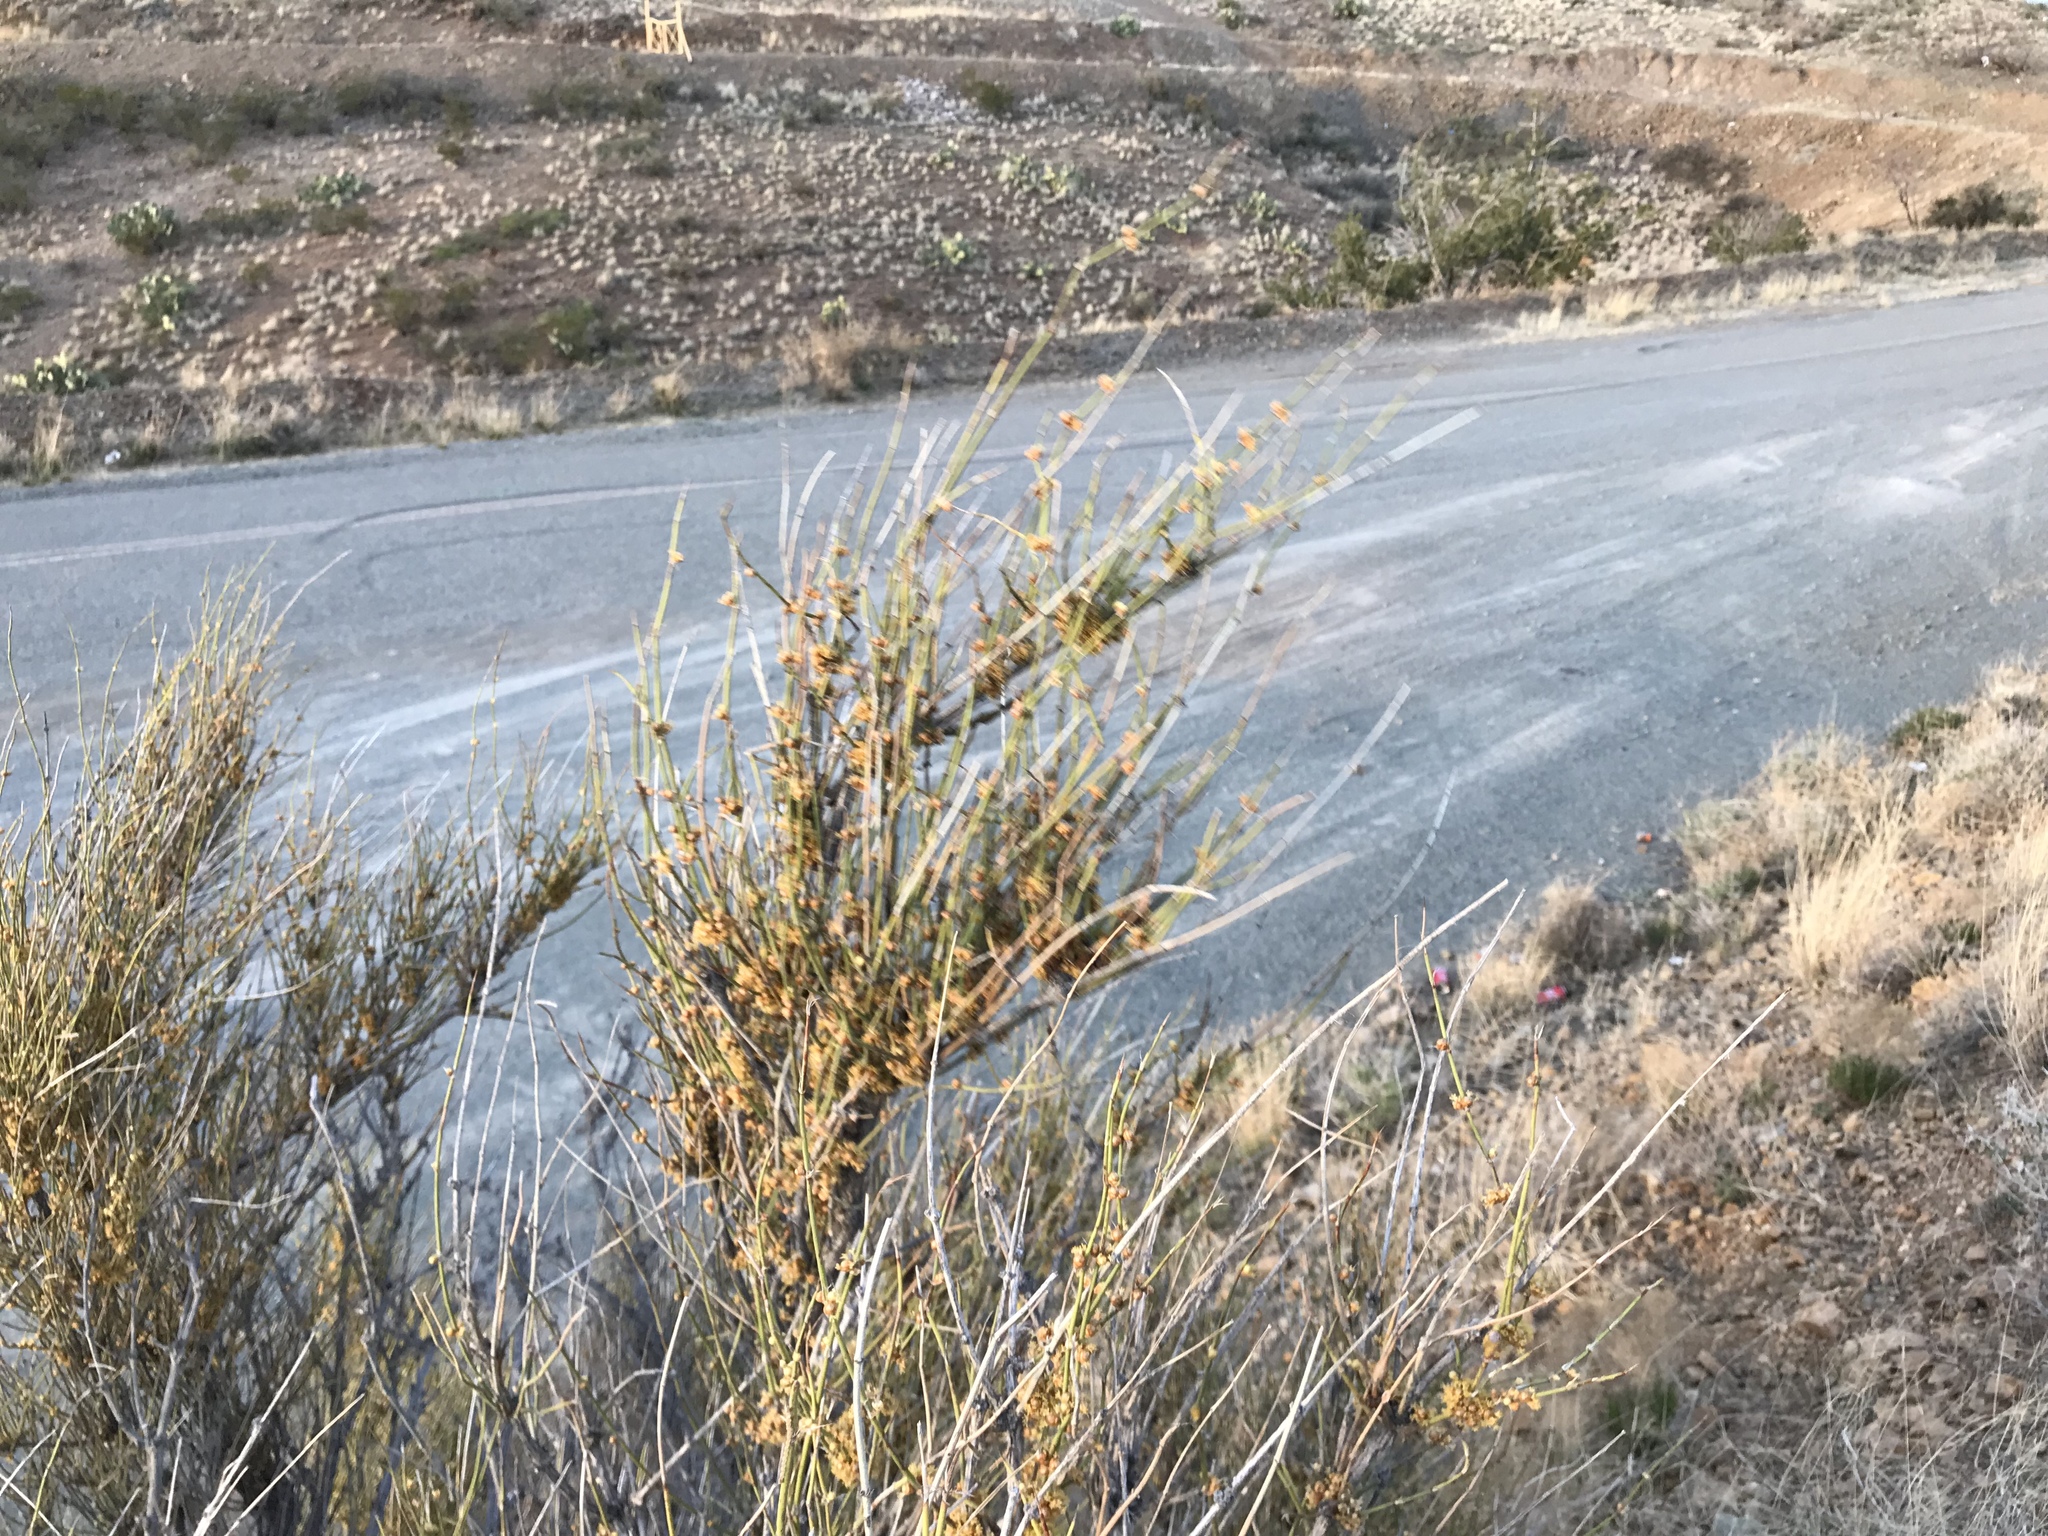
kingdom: Plantae
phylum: Tracheophyta
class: Gnetopsida
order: Ephedrales
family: Ephedraceae
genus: Ephedra
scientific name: Ephedra trifurca
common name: Mexican-tea
